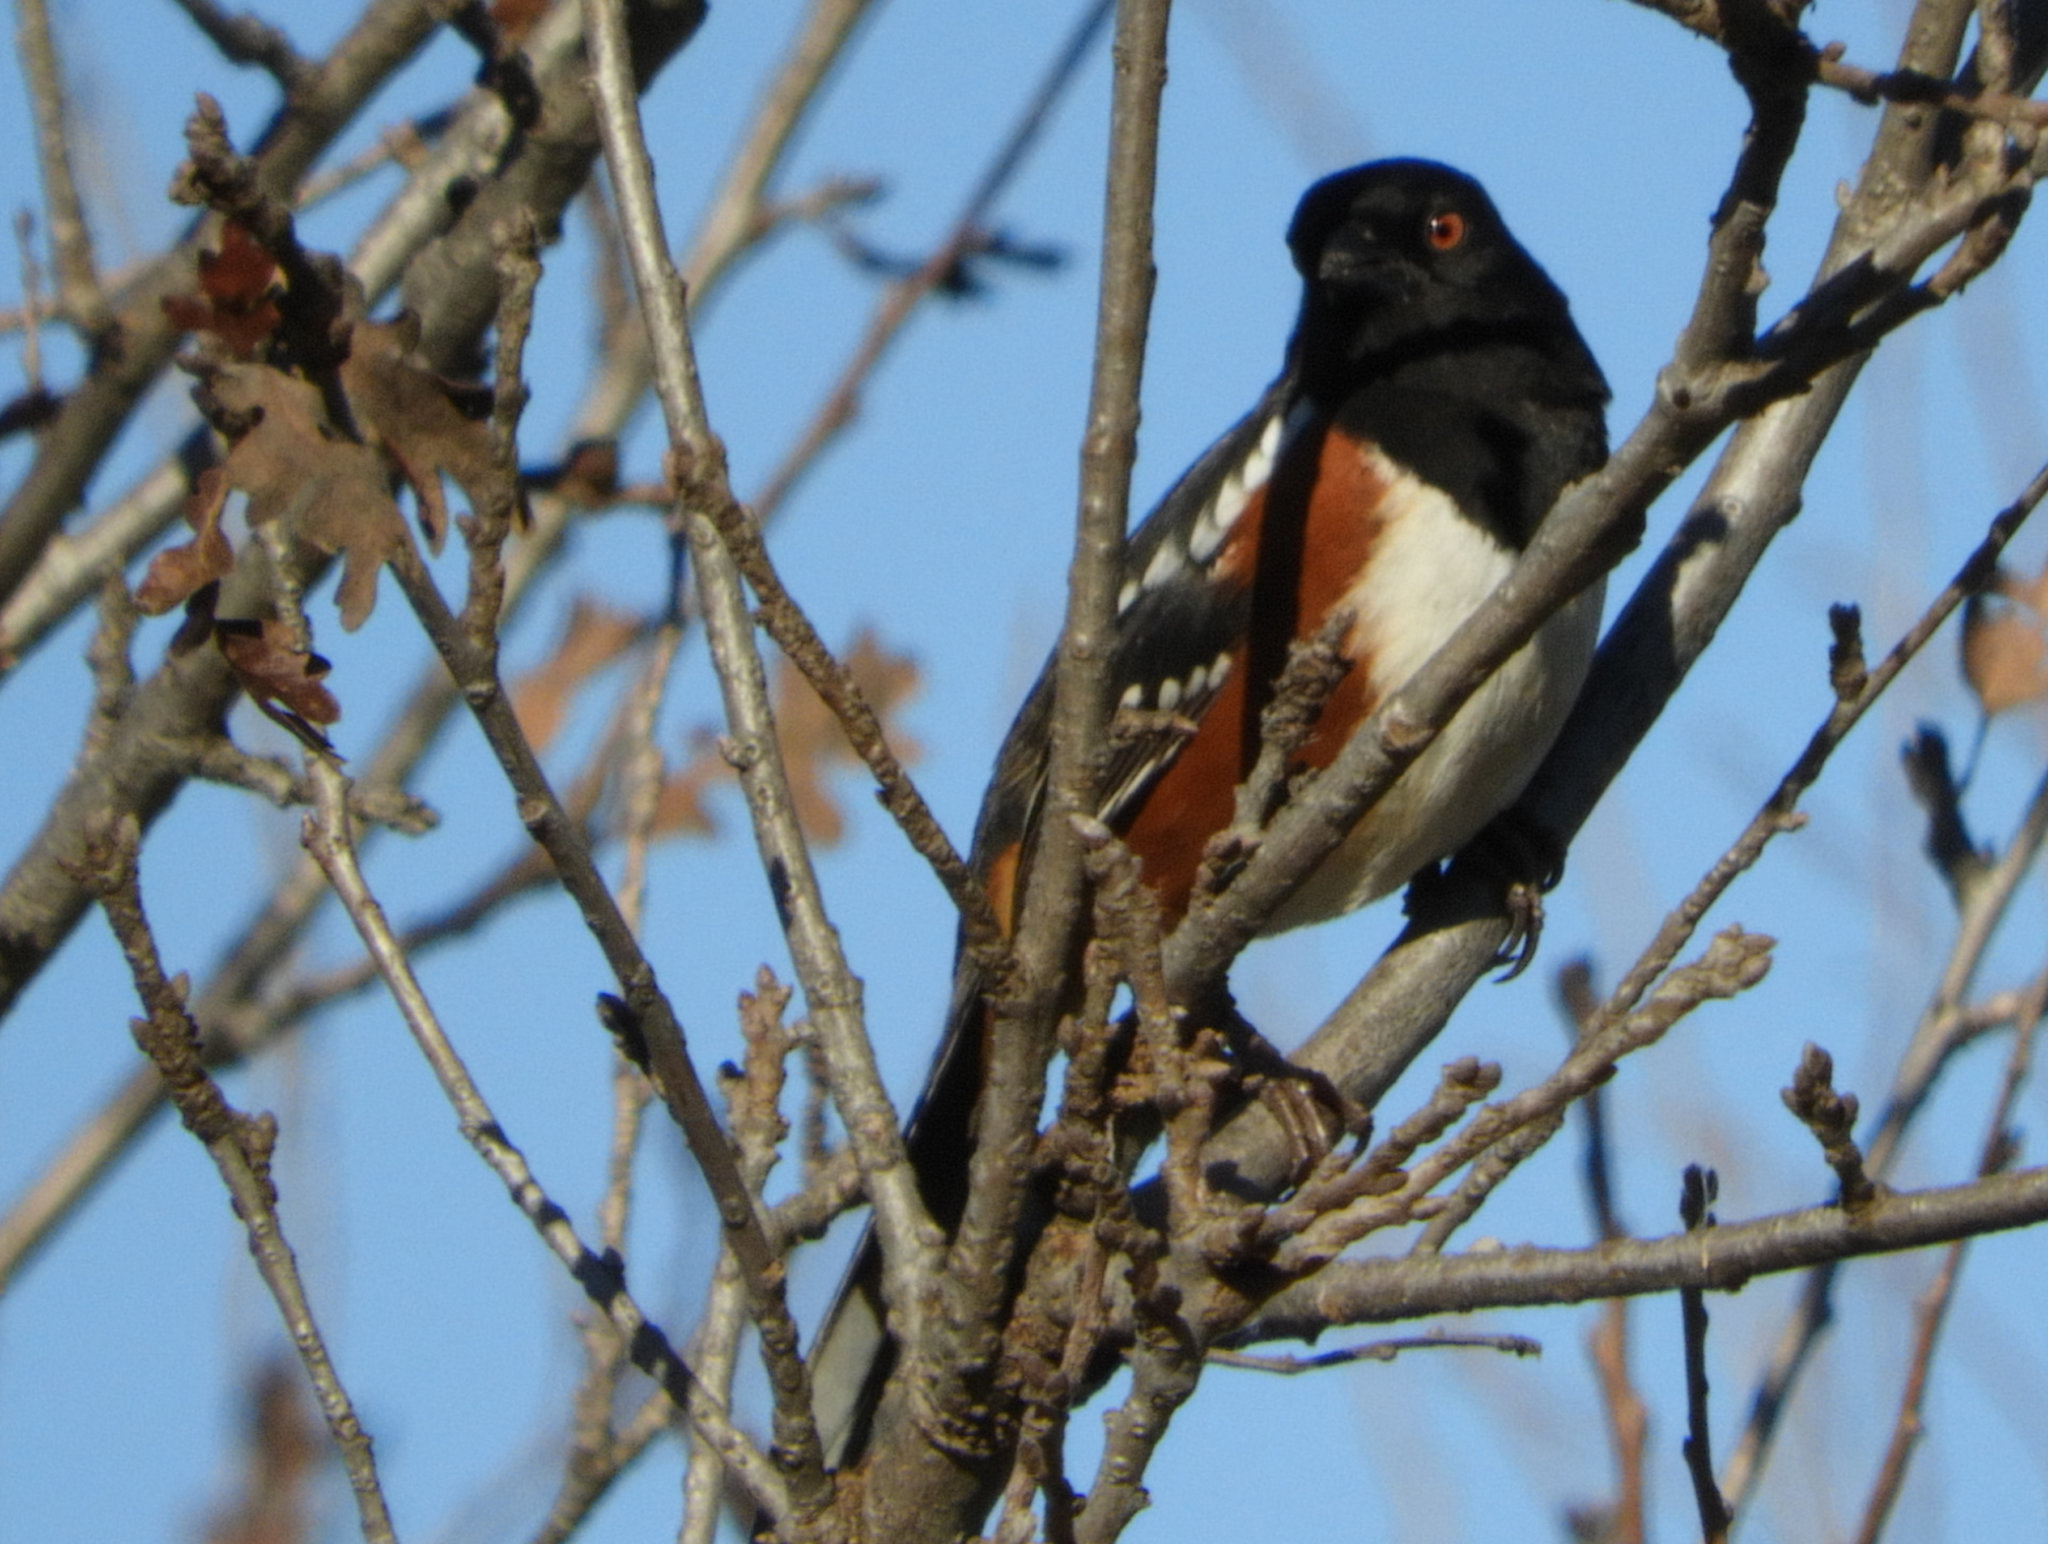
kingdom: Animalia
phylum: Chordata
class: Aves
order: Passeriformes
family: Passerellidae
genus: Pipilo
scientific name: Pipilo maculatus
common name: Spotted towhee
